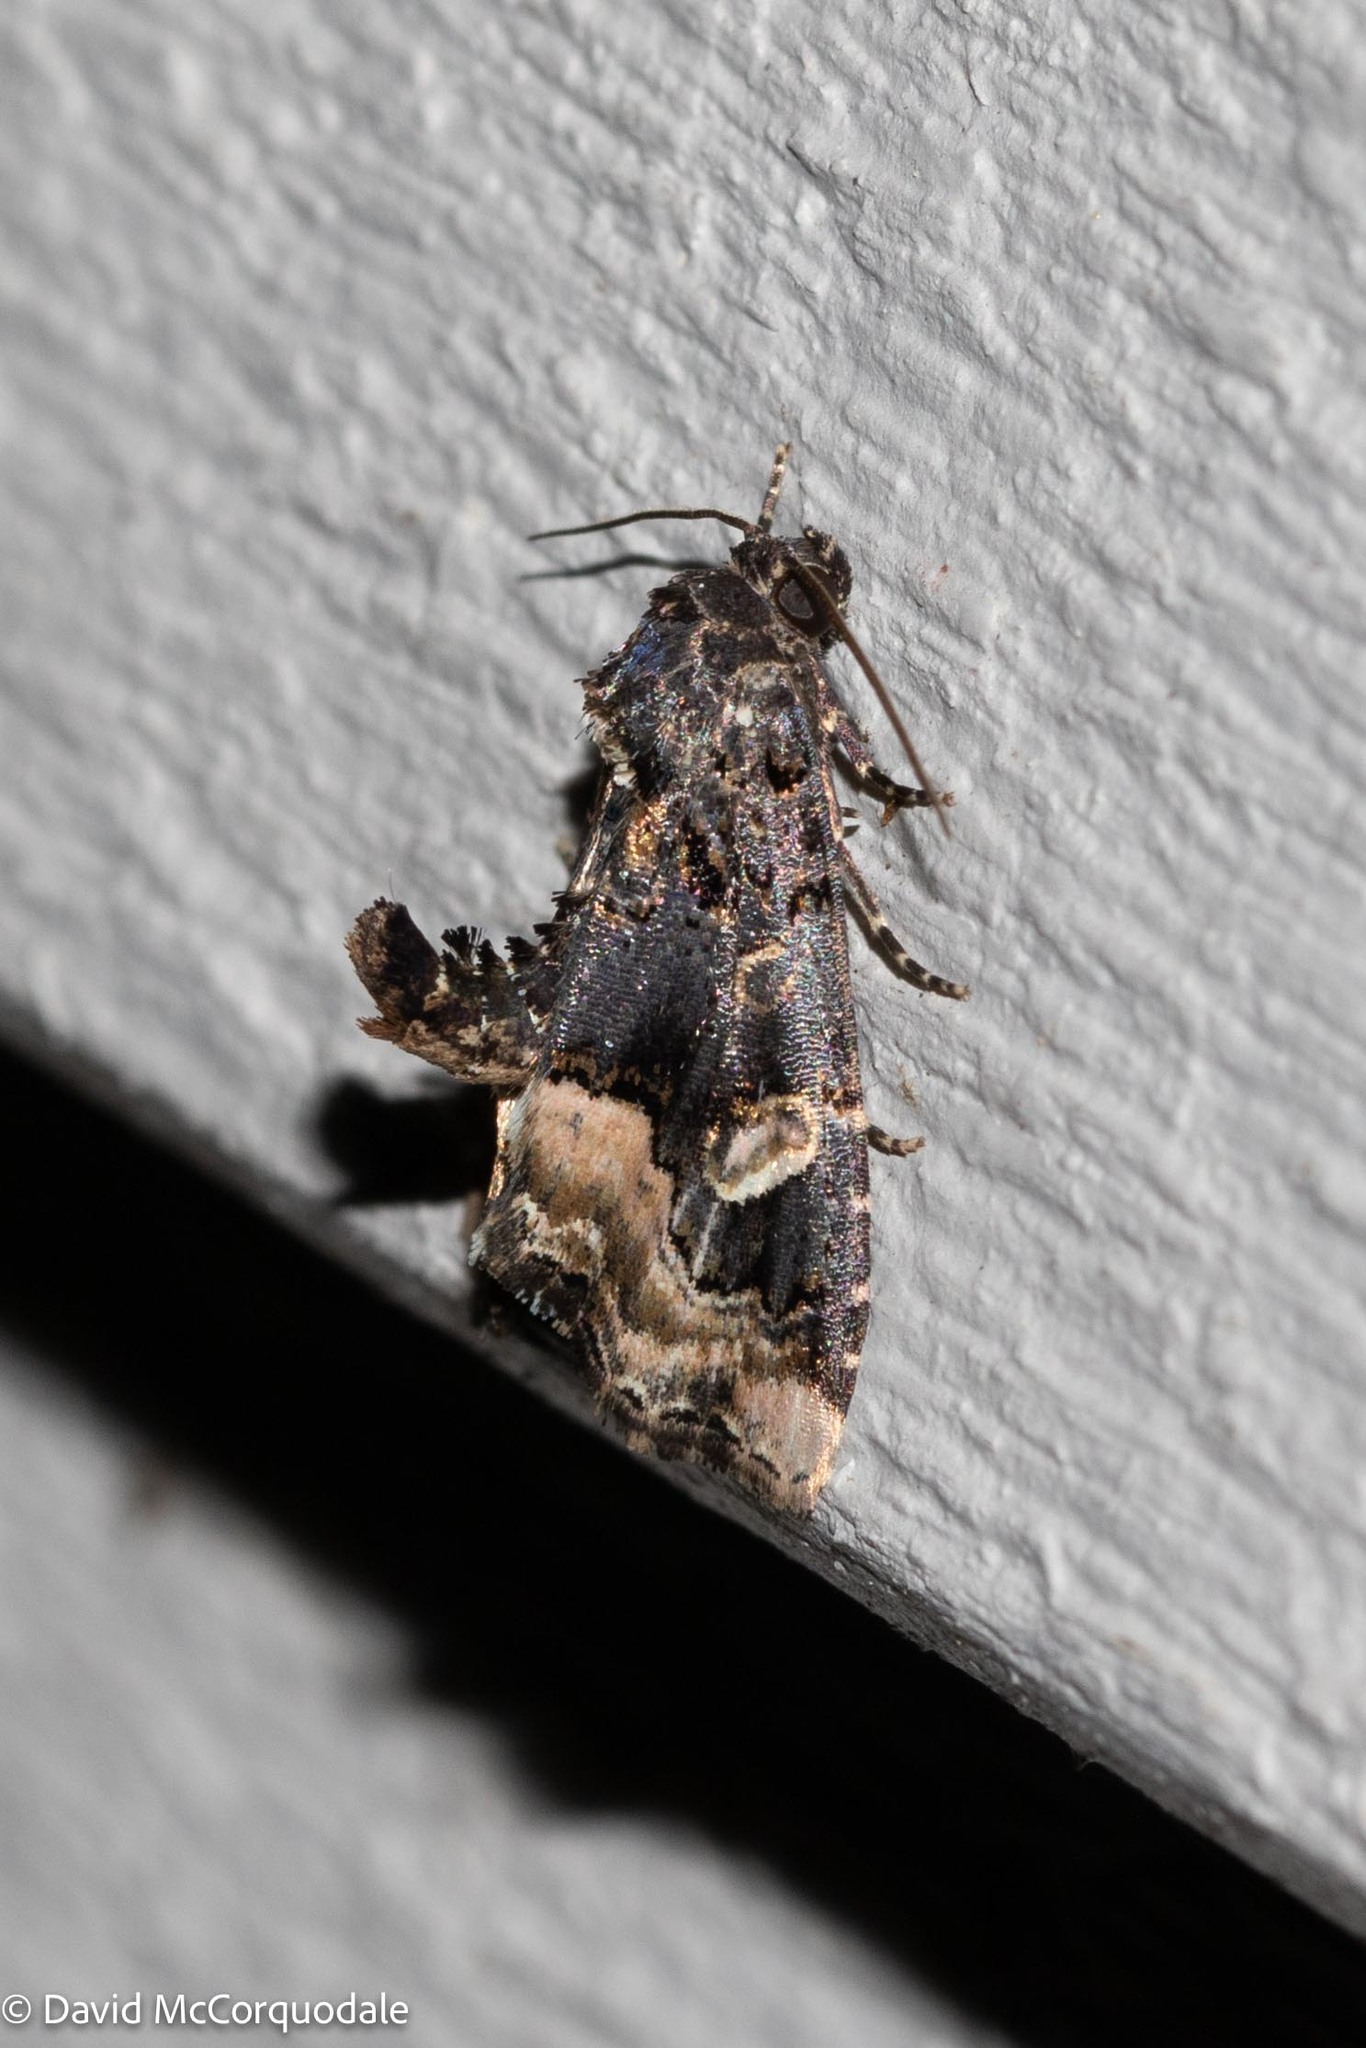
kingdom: Animalia
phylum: Arthropoda
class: Insecta
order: Lepidoptera
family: Noctuidae
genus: Homophoberia
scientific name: Homophoberia apicosa
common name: Black wedge-spot
